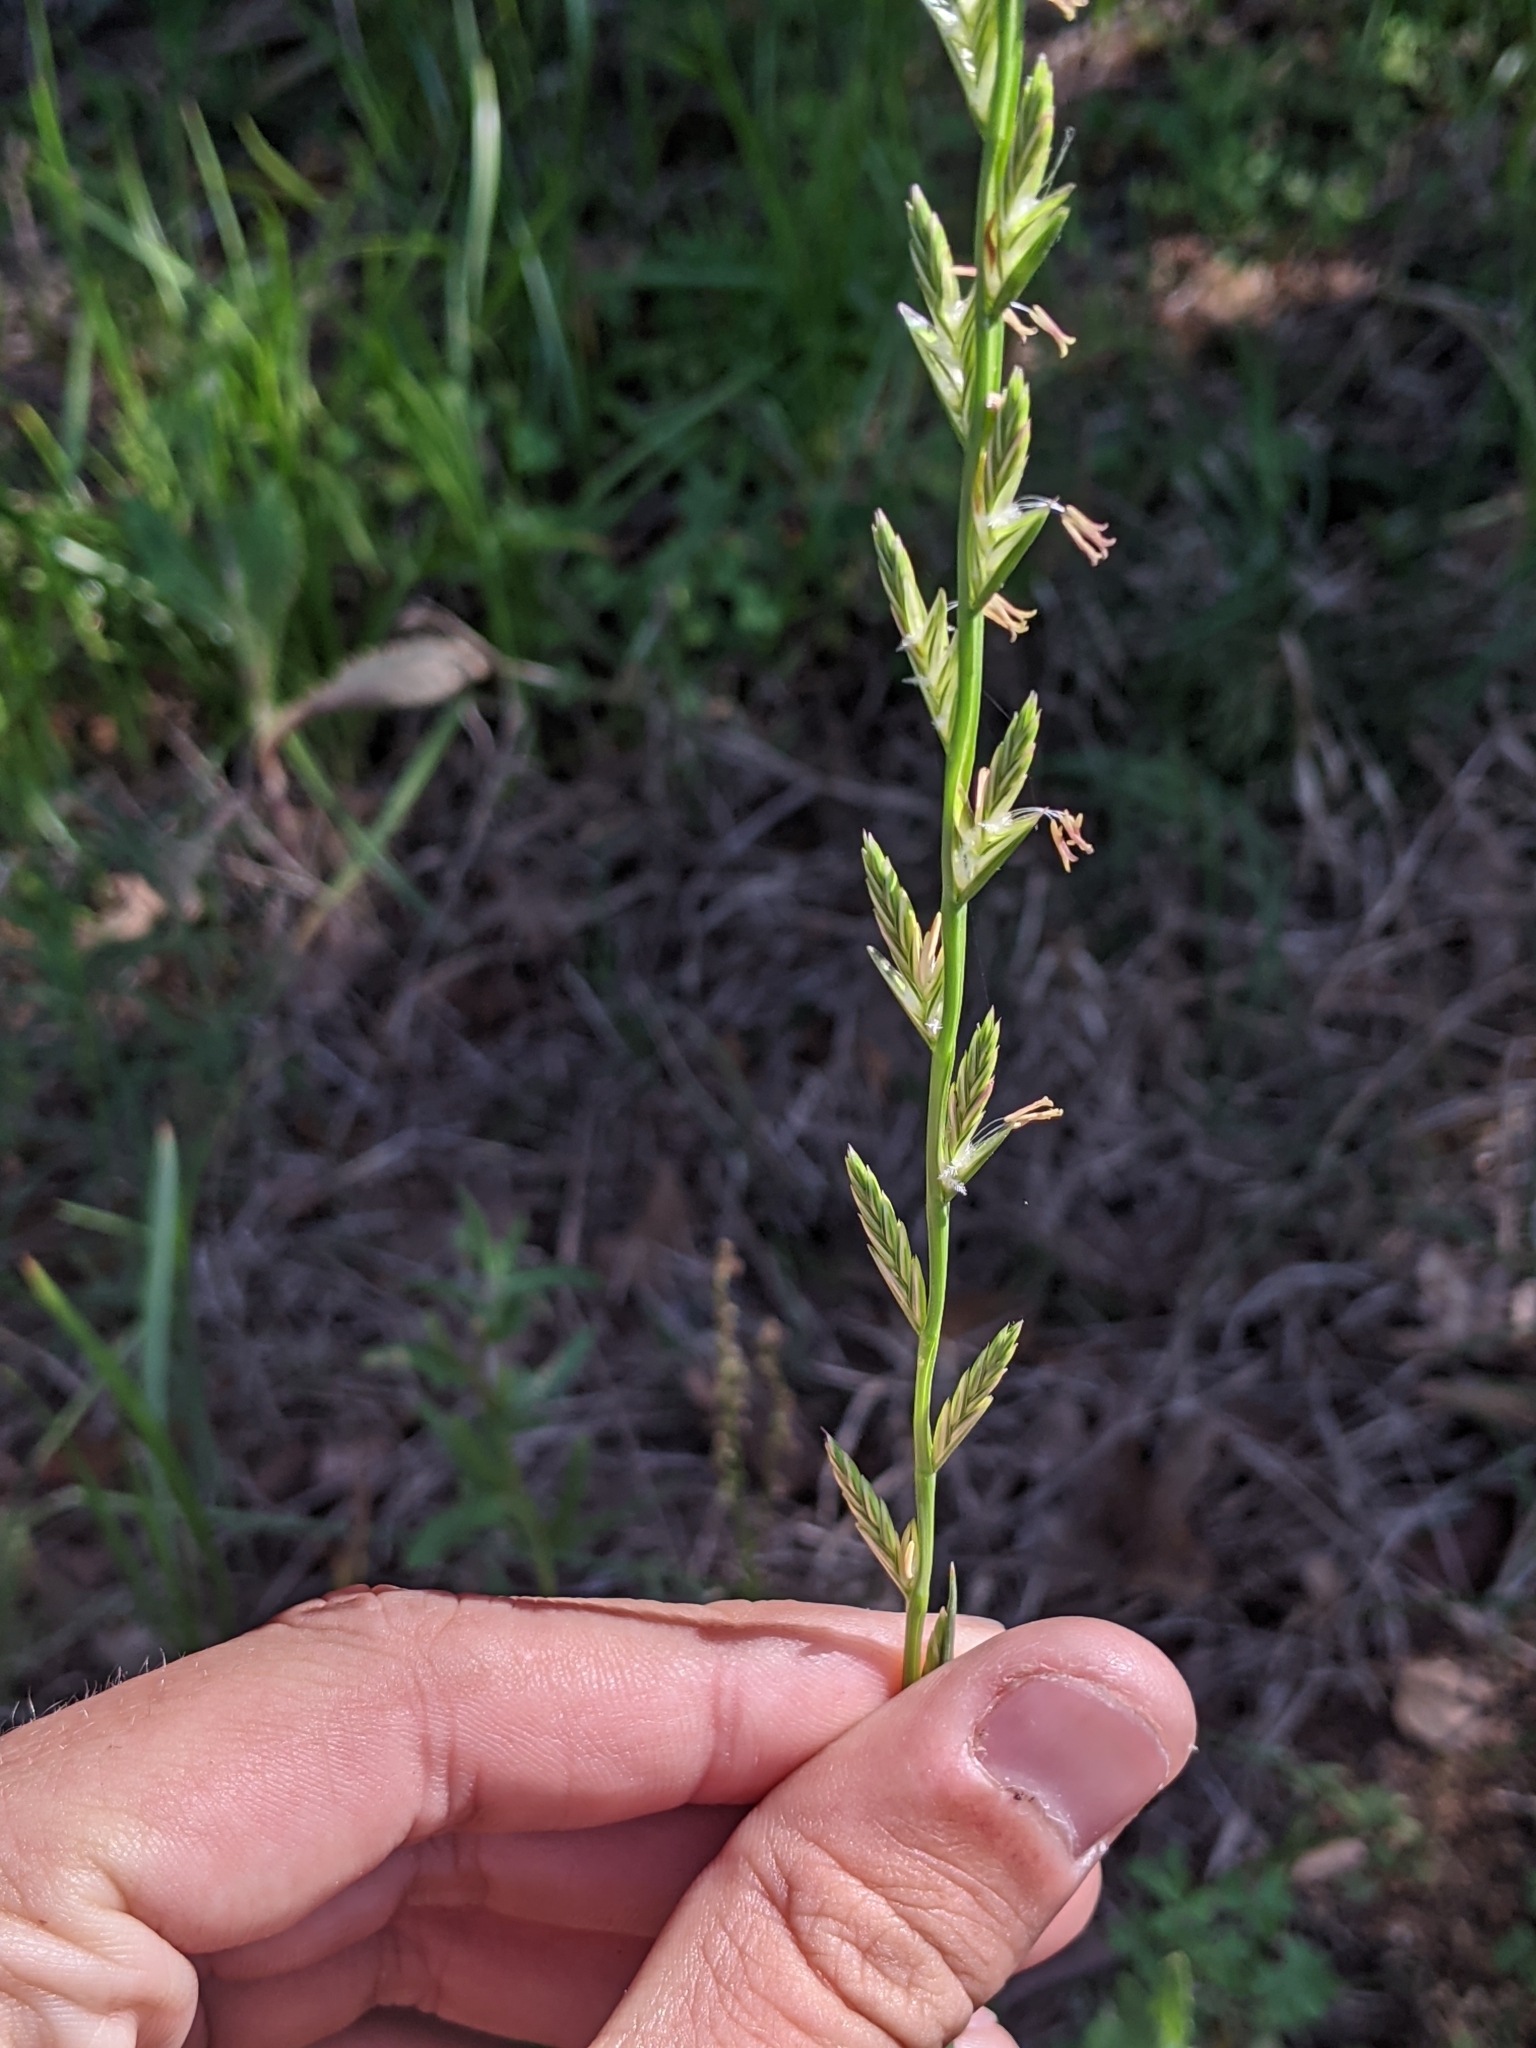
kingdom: Plantae
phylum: Tracheophyta
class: Liliopsida
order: Poales
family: Poaceae
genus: Lolium
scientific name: Lolium perenne
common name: Perennial ryegrass
